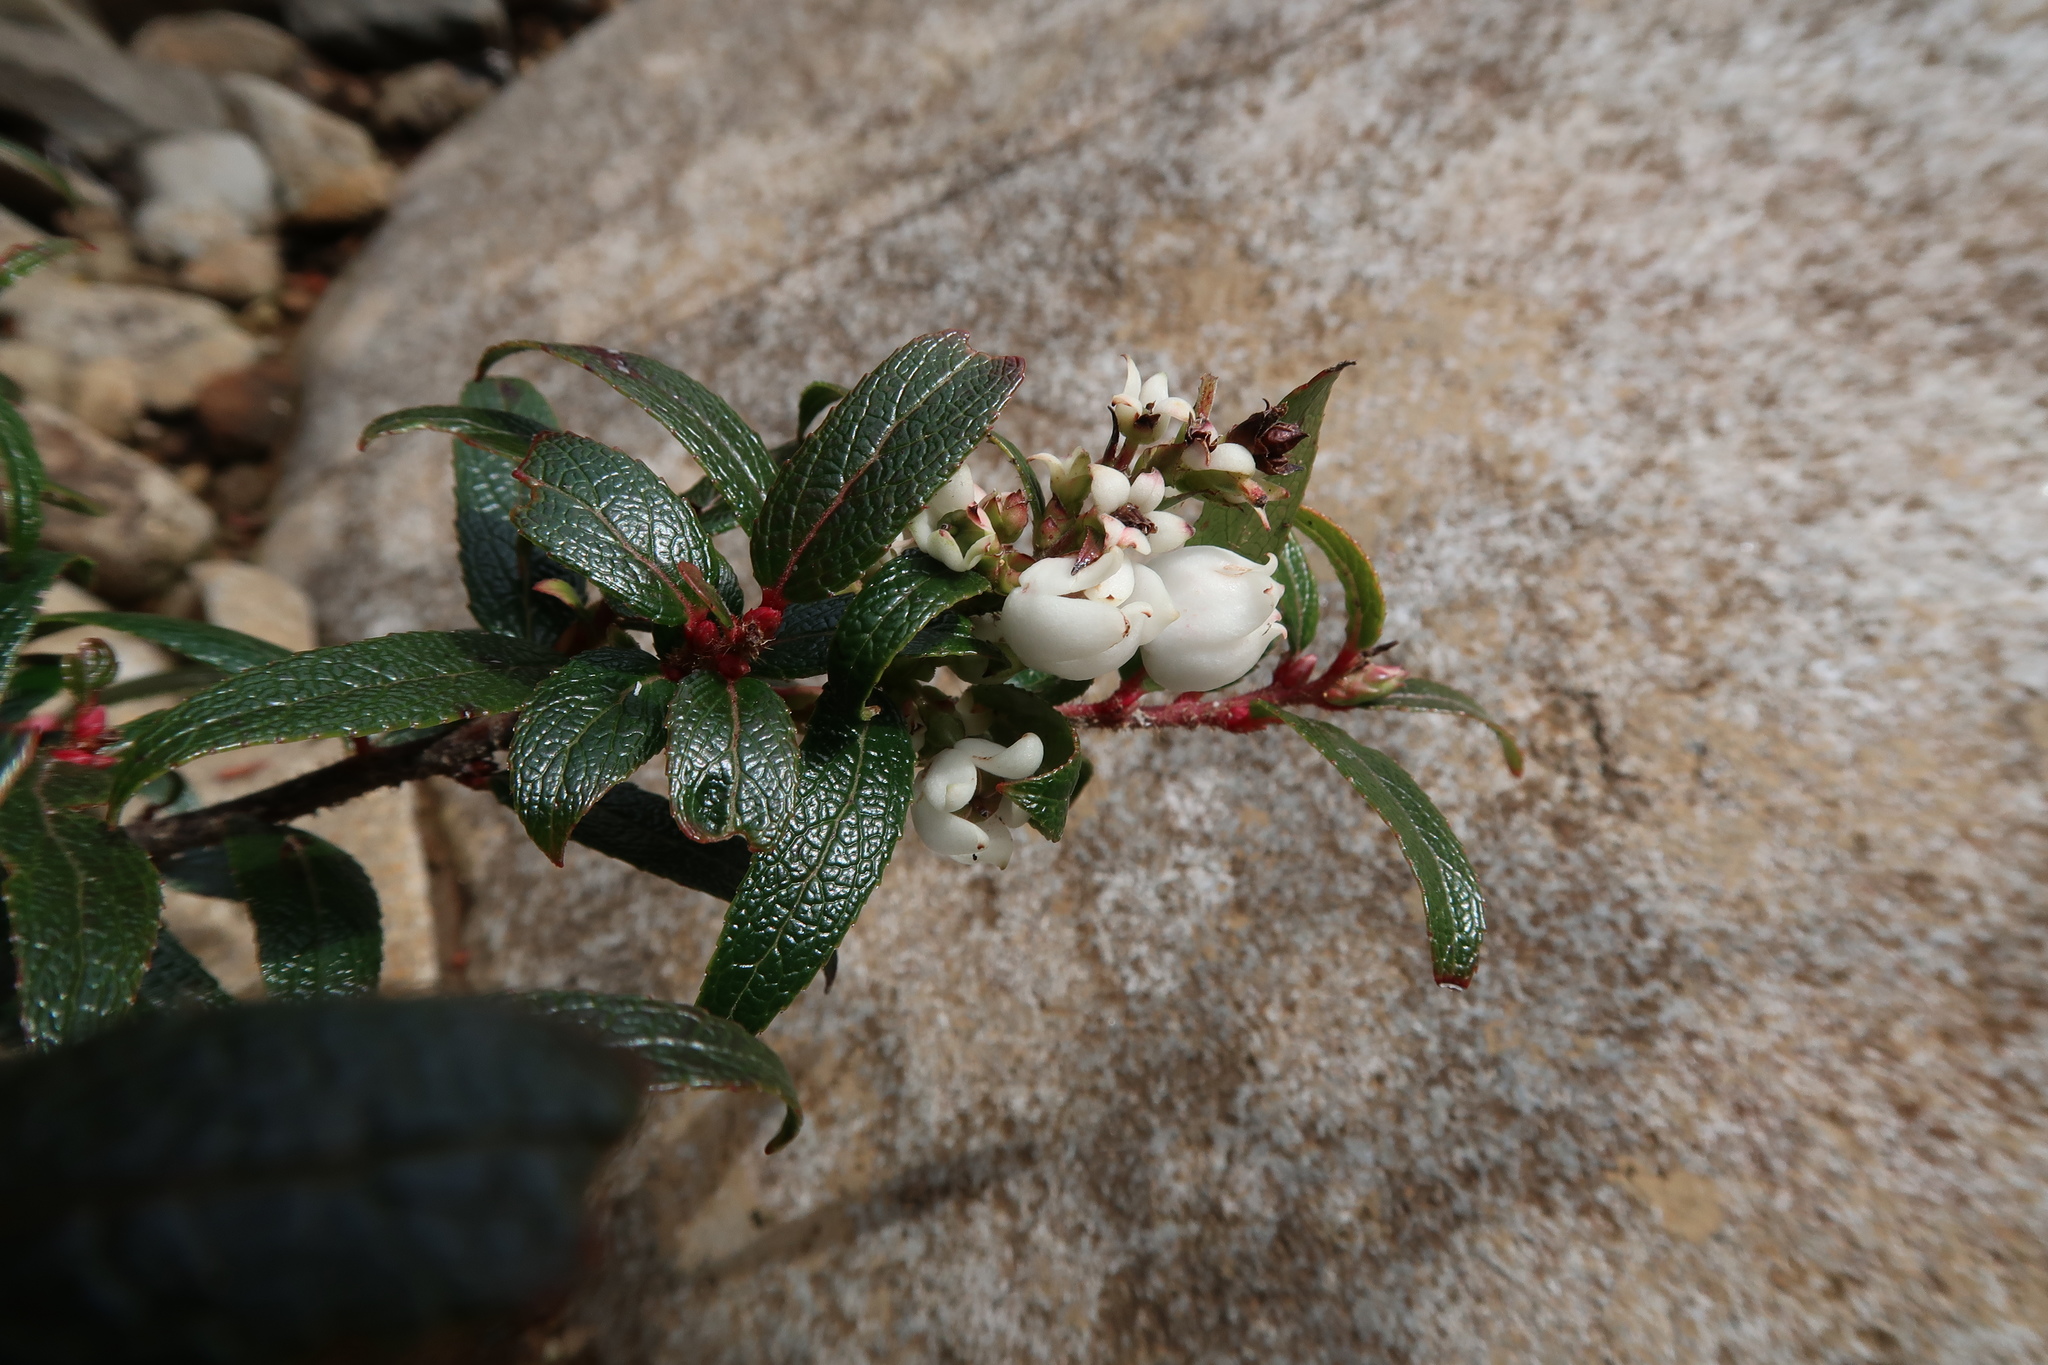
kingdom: Plantae
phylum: Tracheophyta
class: Magnoliopsida
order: Ericales
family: Ericaceae
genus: Gaultheria
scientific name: Gaultheria hispida
